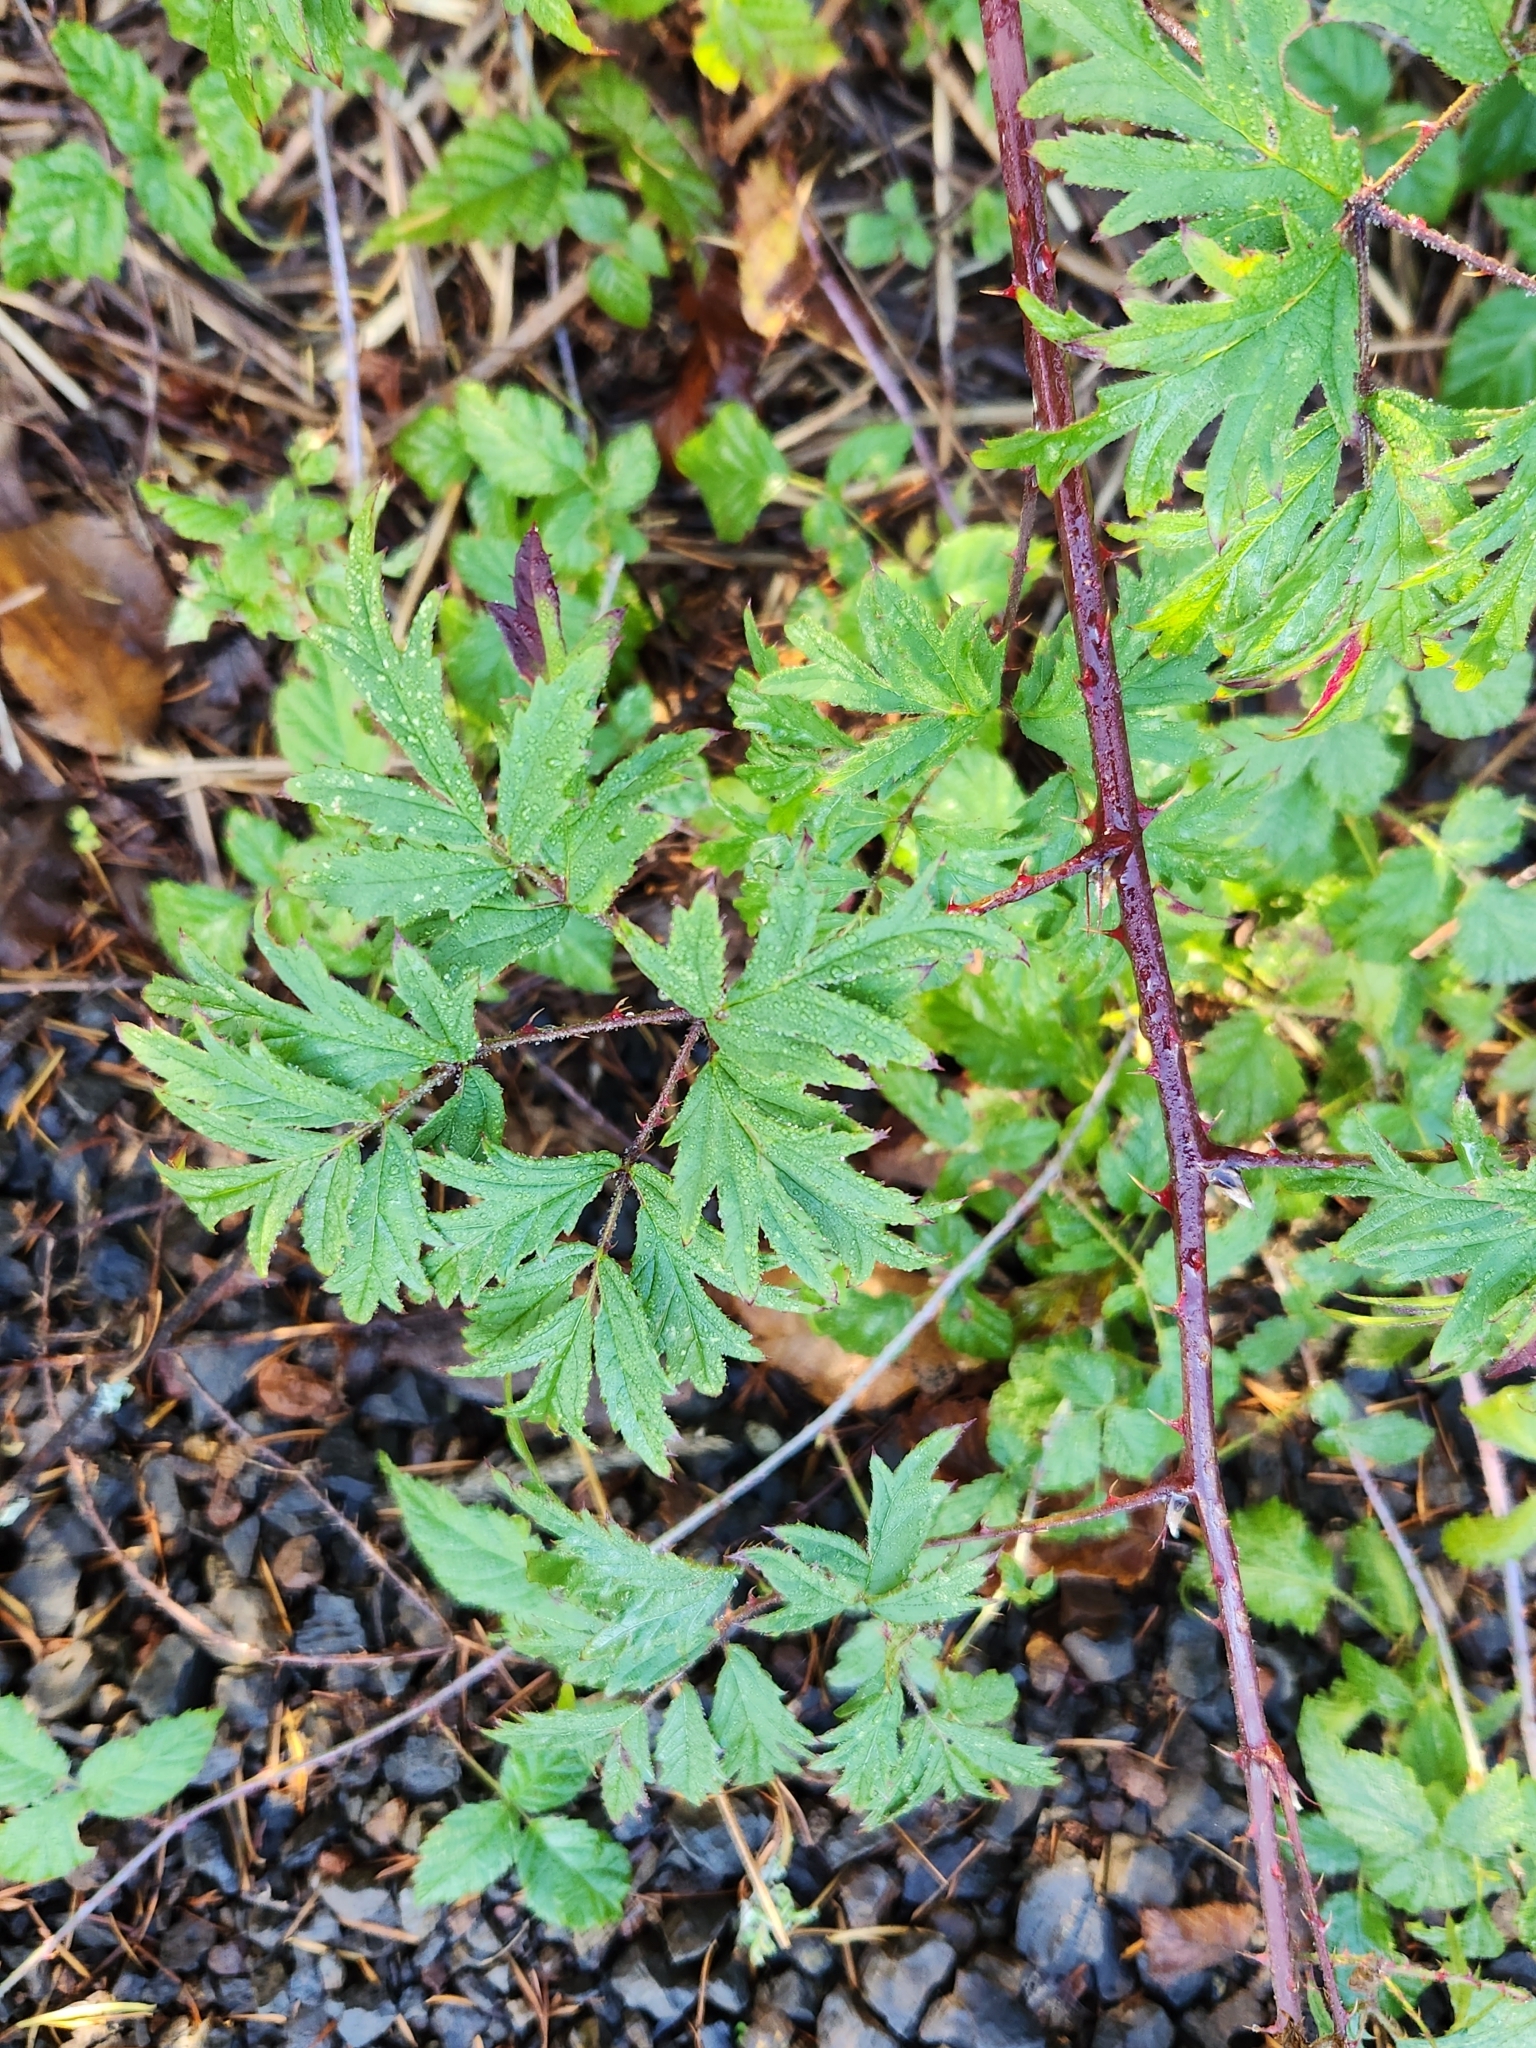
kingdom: Plantae
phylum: Tracheophyta
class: Magnoliopsida
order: Rosales
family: Rosaceae
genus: Rubus
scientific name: Rubus laciniatus
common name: Evergreen blackberry
